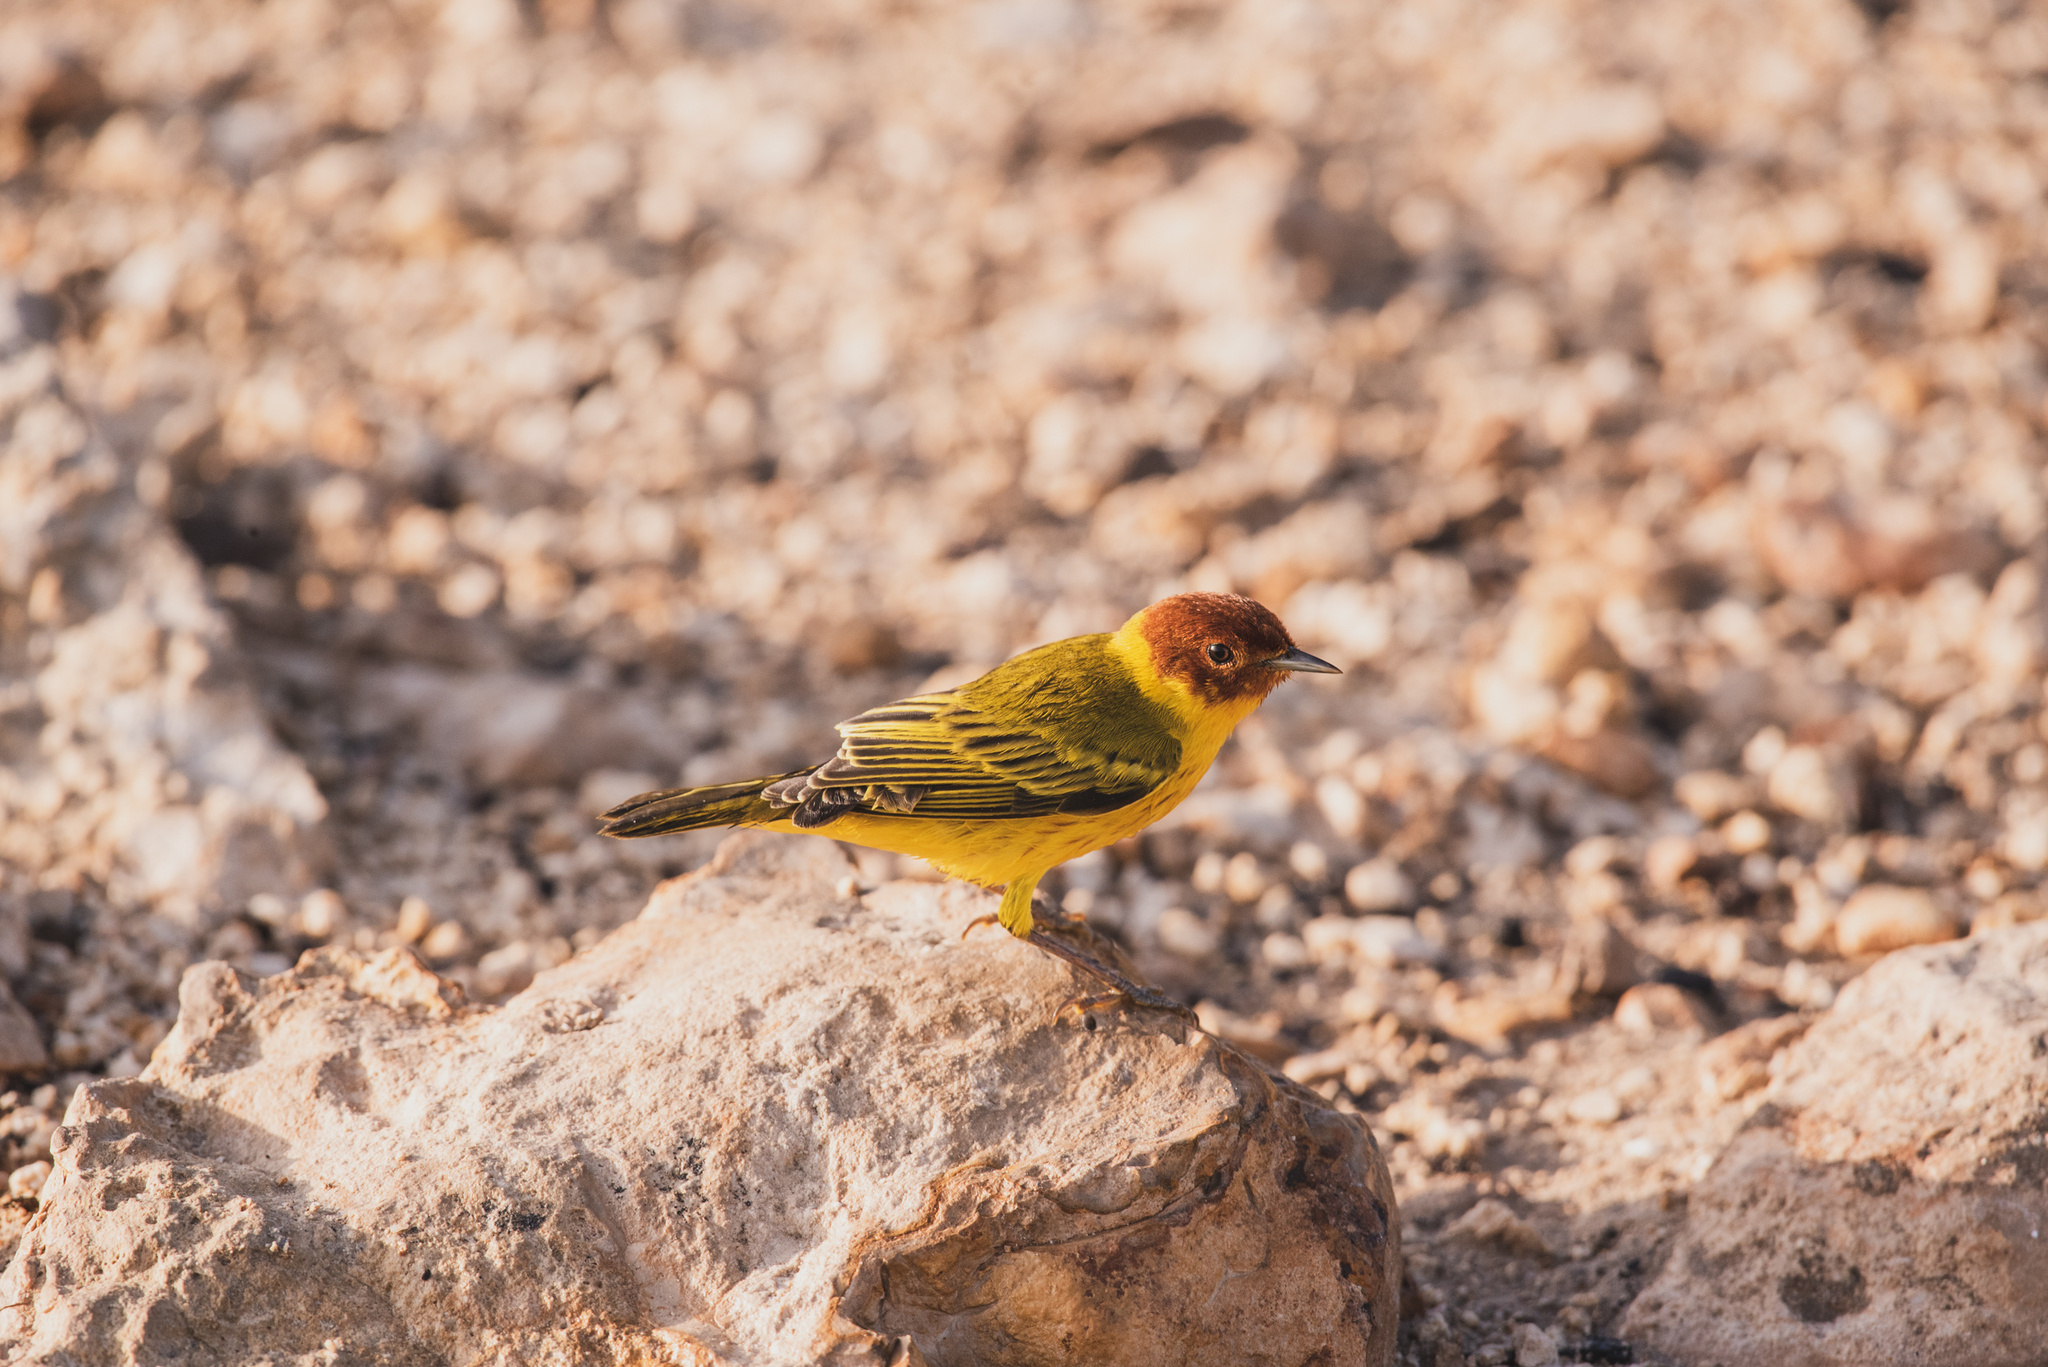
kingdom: Animalia
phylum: Chordata
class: Aves
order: Passeriformes
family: Parulidae
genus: Setophaga
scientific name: Setophaga petechia
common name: Yellow warbler
